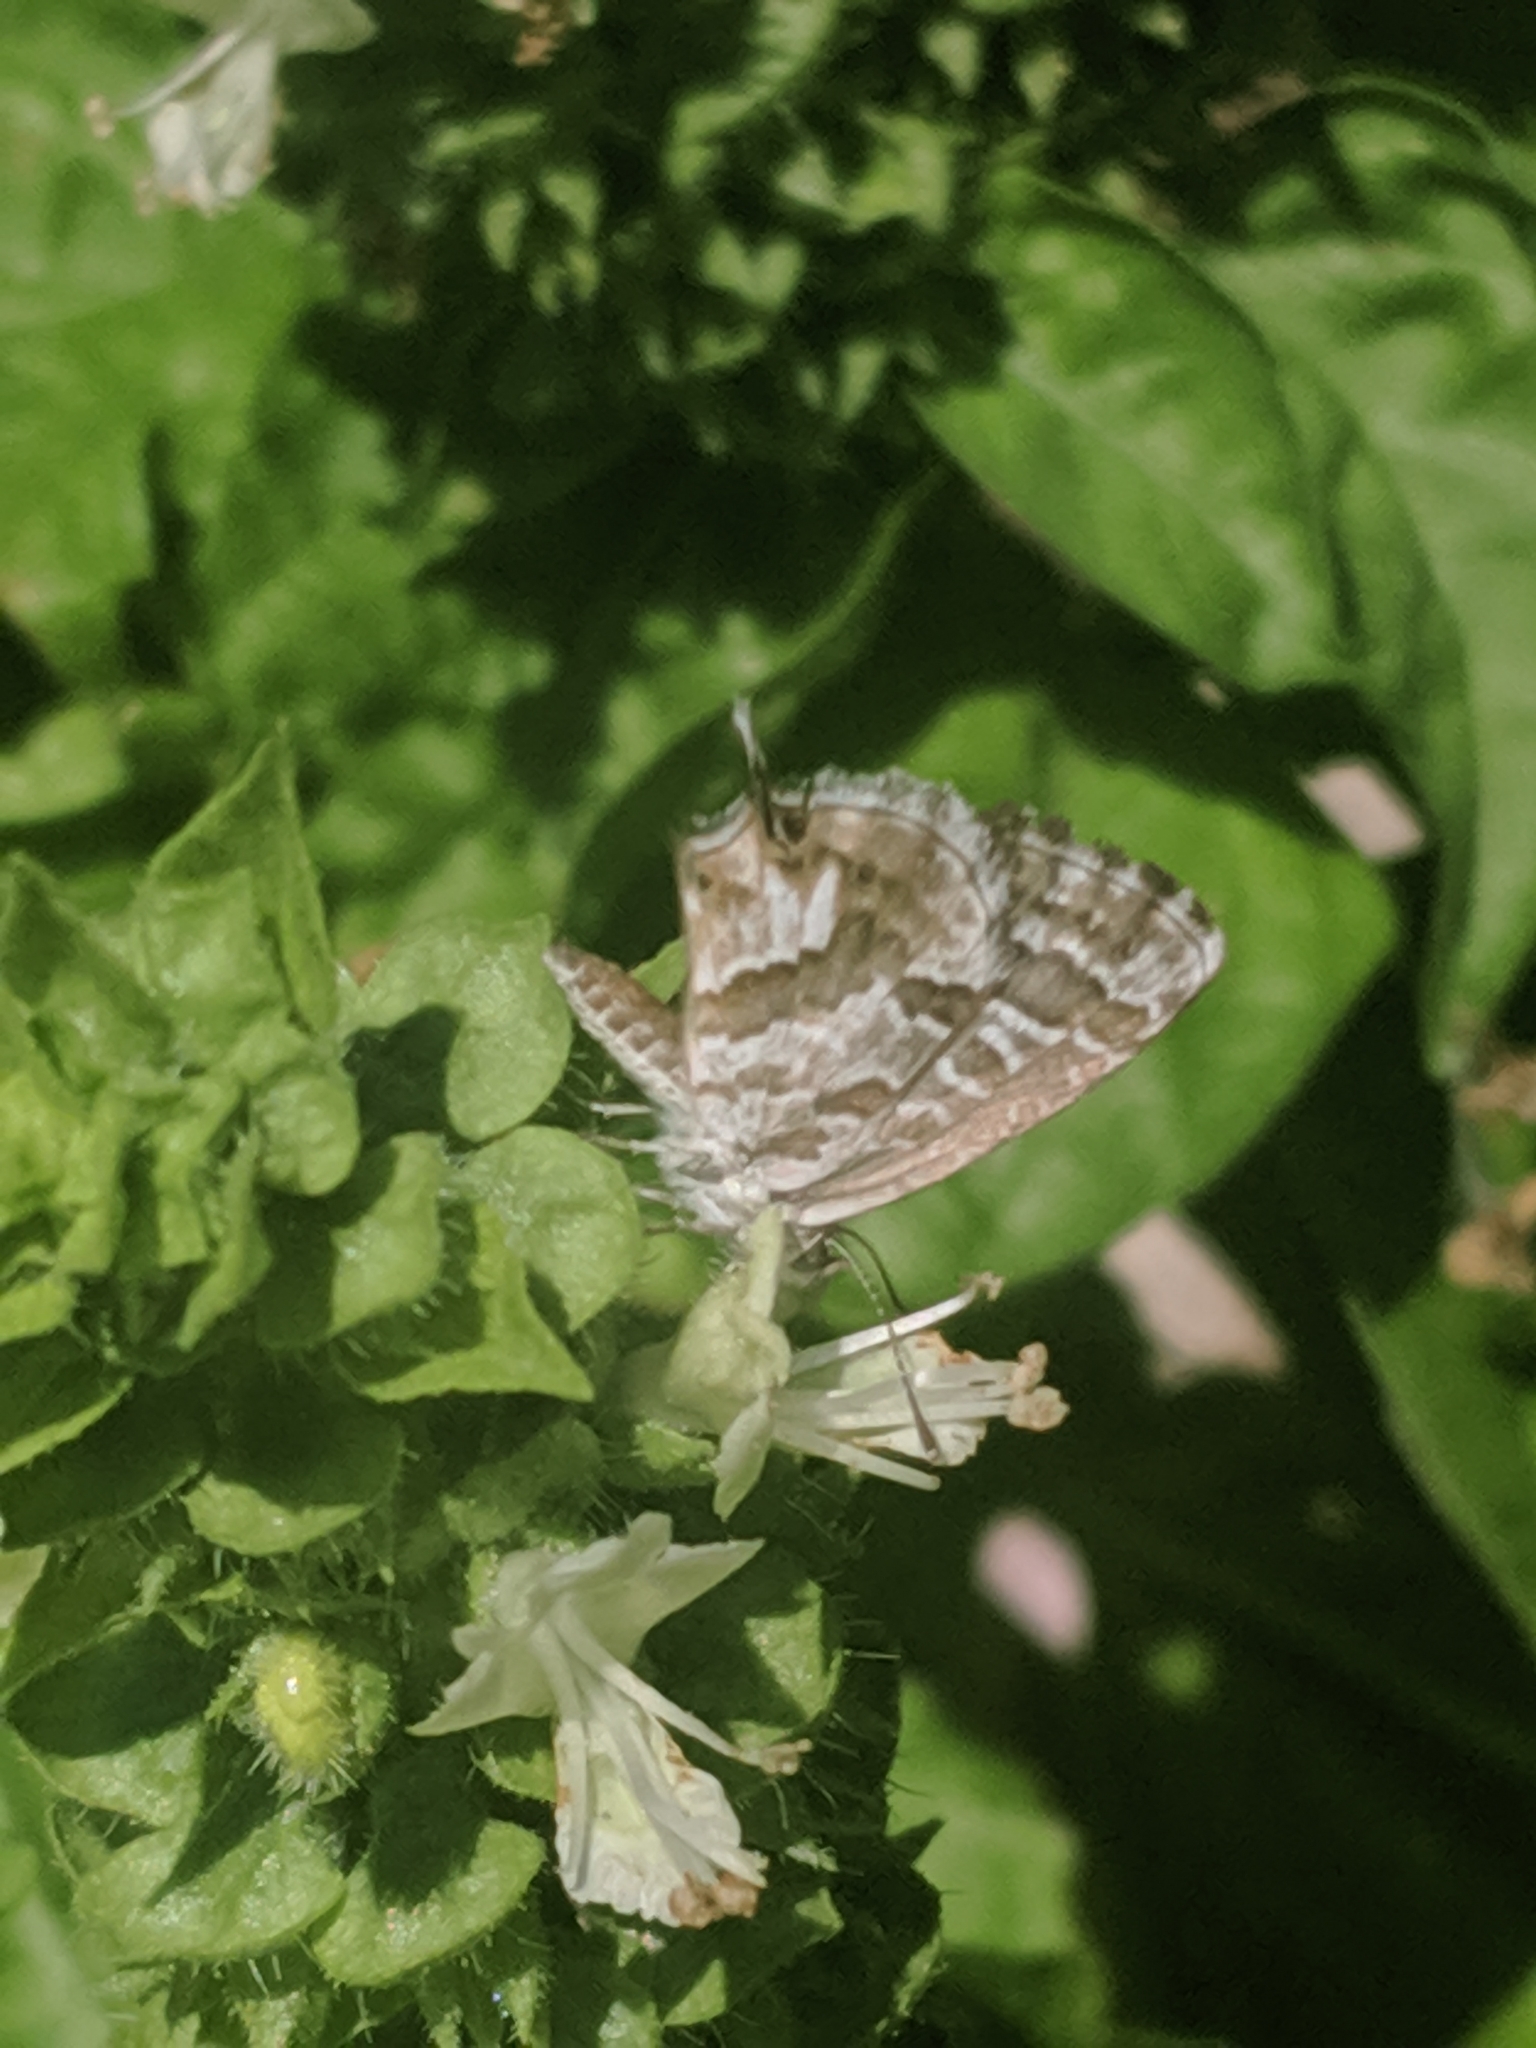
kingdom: Animalia
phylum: Arthropoda
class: Insecta
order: Lepidoptera
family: Lycaenidae
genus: Cacyreus
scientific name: Cacyreus marshalli
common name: Geranium bronze
